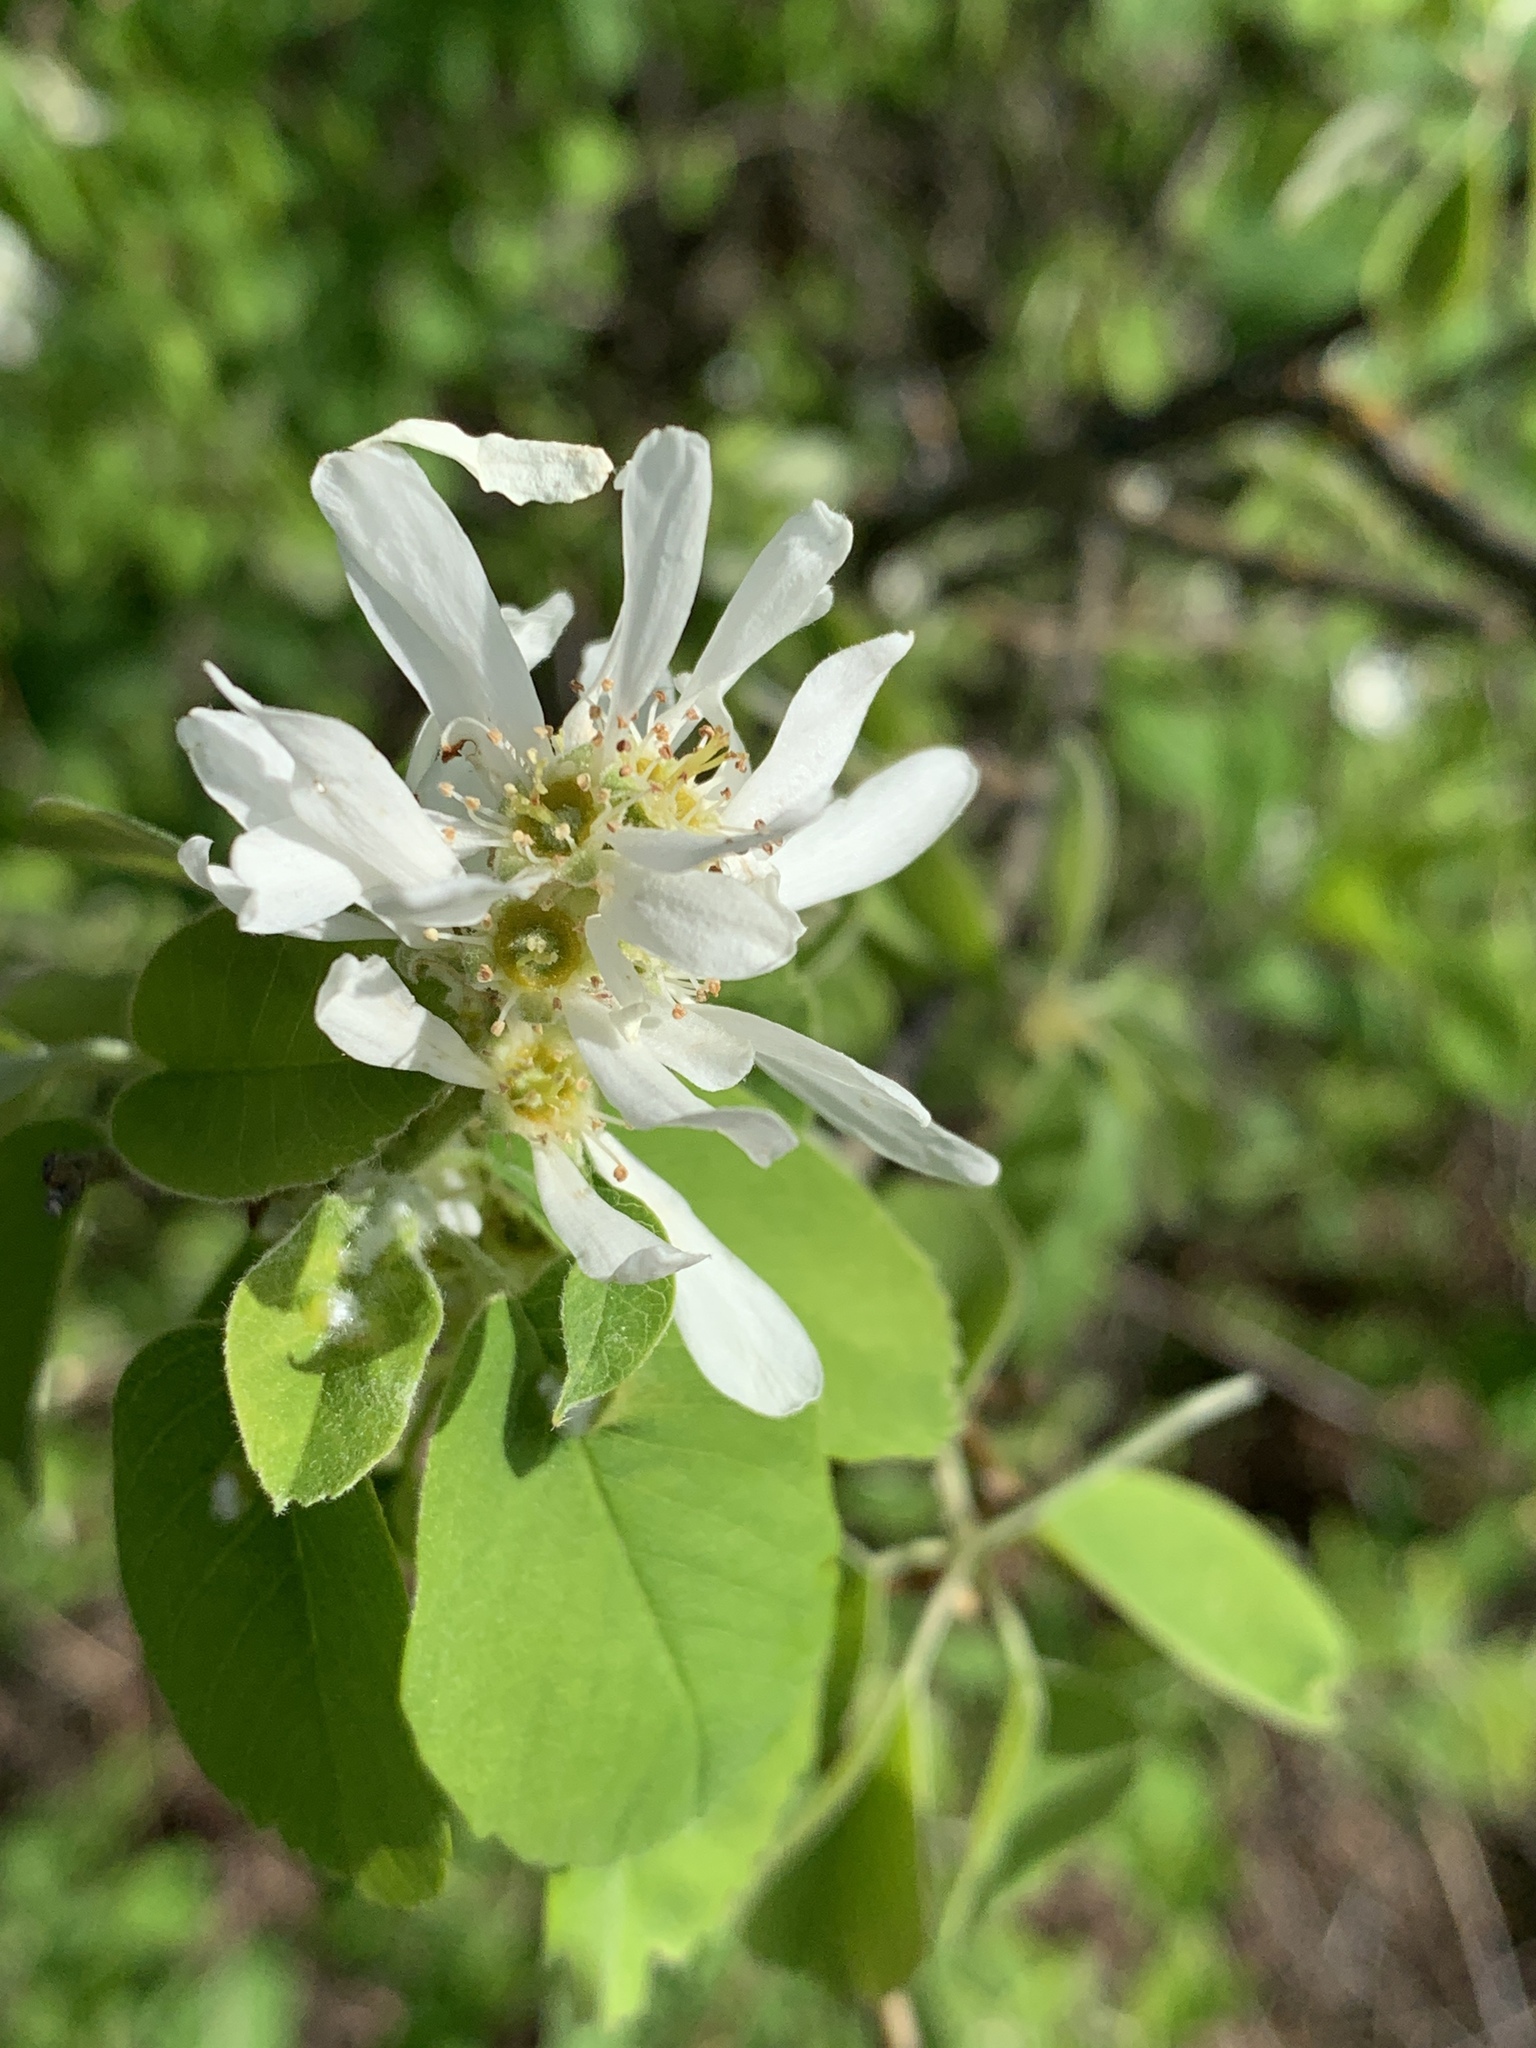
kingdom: Plantae
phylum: Tracheophyta
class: Magnoliopsida
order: Rosales
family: Rosaceae
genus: Amelanchier
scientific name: Amelanchier alnifolia
